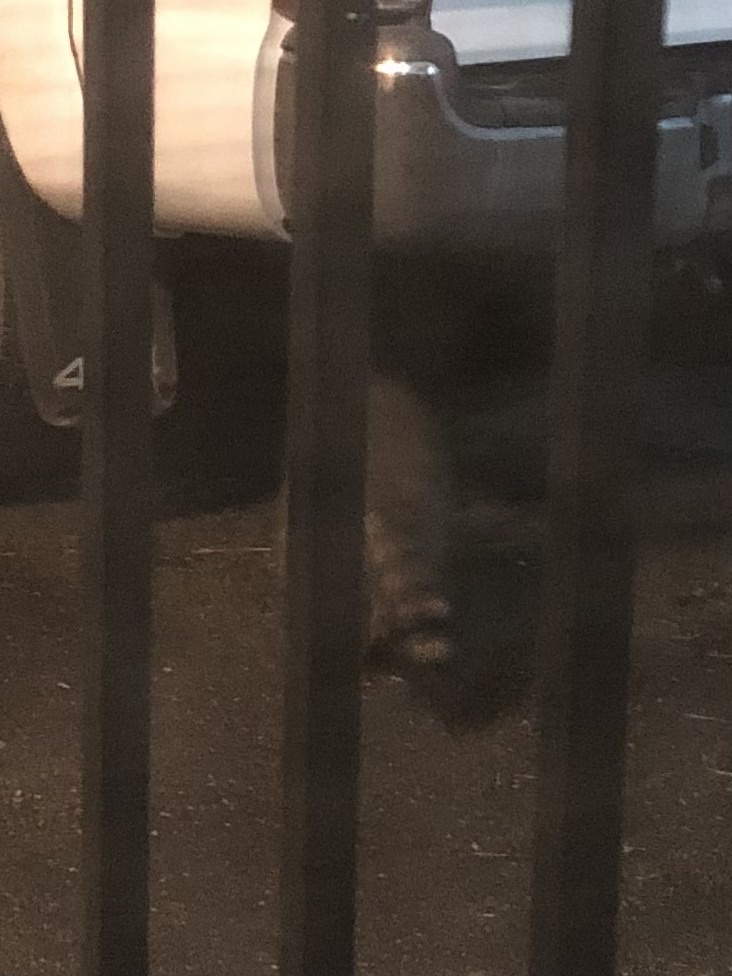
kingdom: Animalia
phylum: Chordata
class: Mammalia
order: Carnivora
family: Procyonidae
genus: Procyon
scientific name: Procyon lotor
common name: Raccoon
